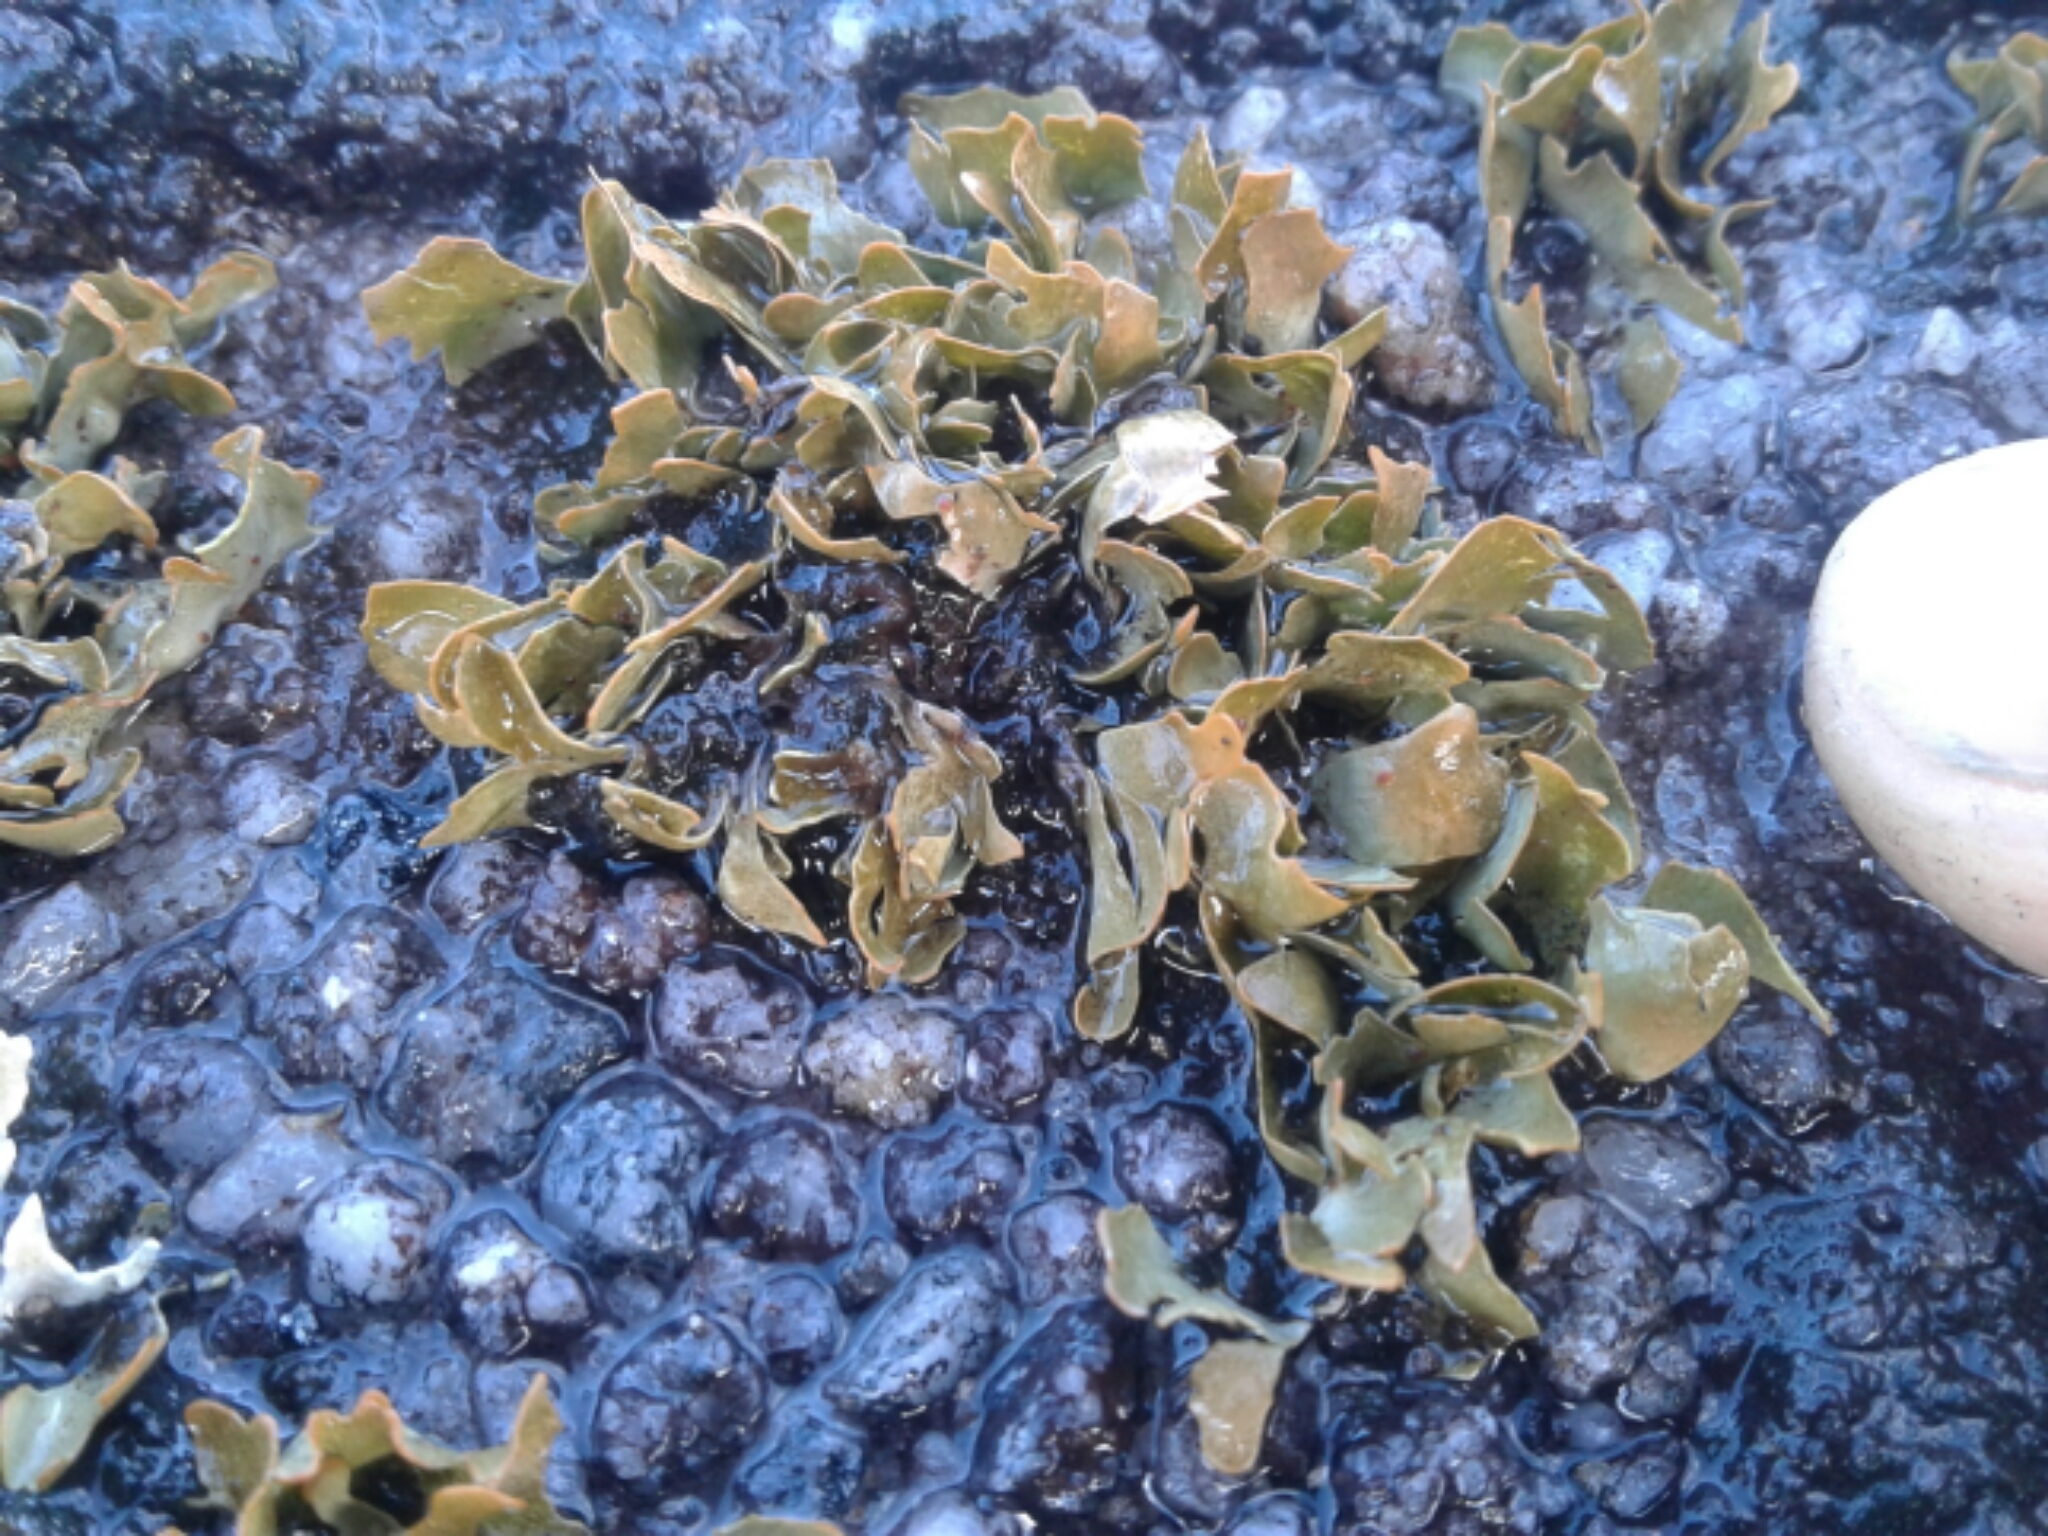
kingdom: Fungi
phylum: Ascomycota
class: Lecanoromycetes
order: Pertusariales
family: Icmadophilaceae
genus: Siphula
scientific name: Siphula
